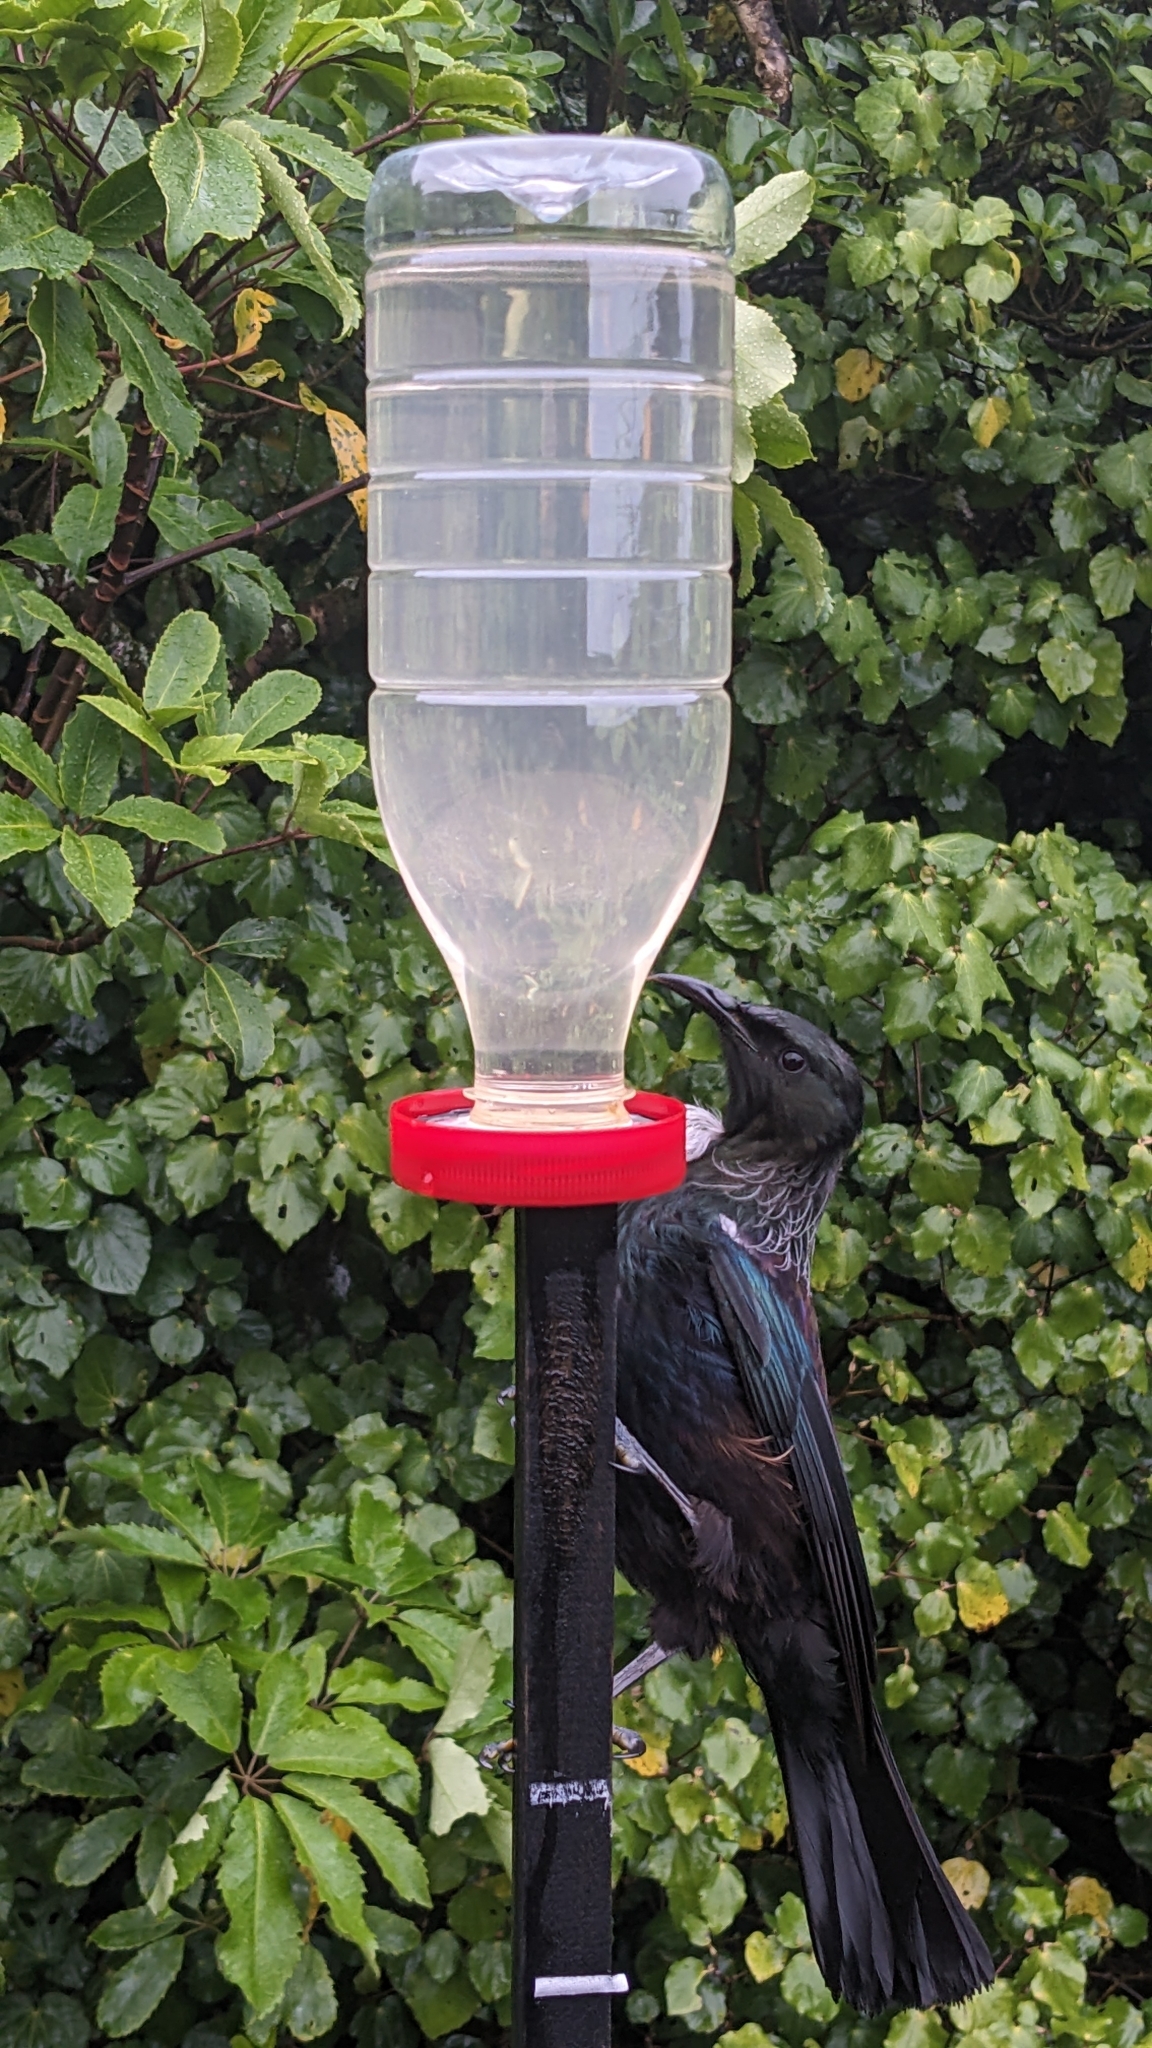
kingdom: Animalia
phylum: Chordata
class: Aves
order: Passeriformes
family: Meliphagidae
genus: Prosthemadera
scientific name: Prosthemadera novaeseelandiae
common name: Tui
